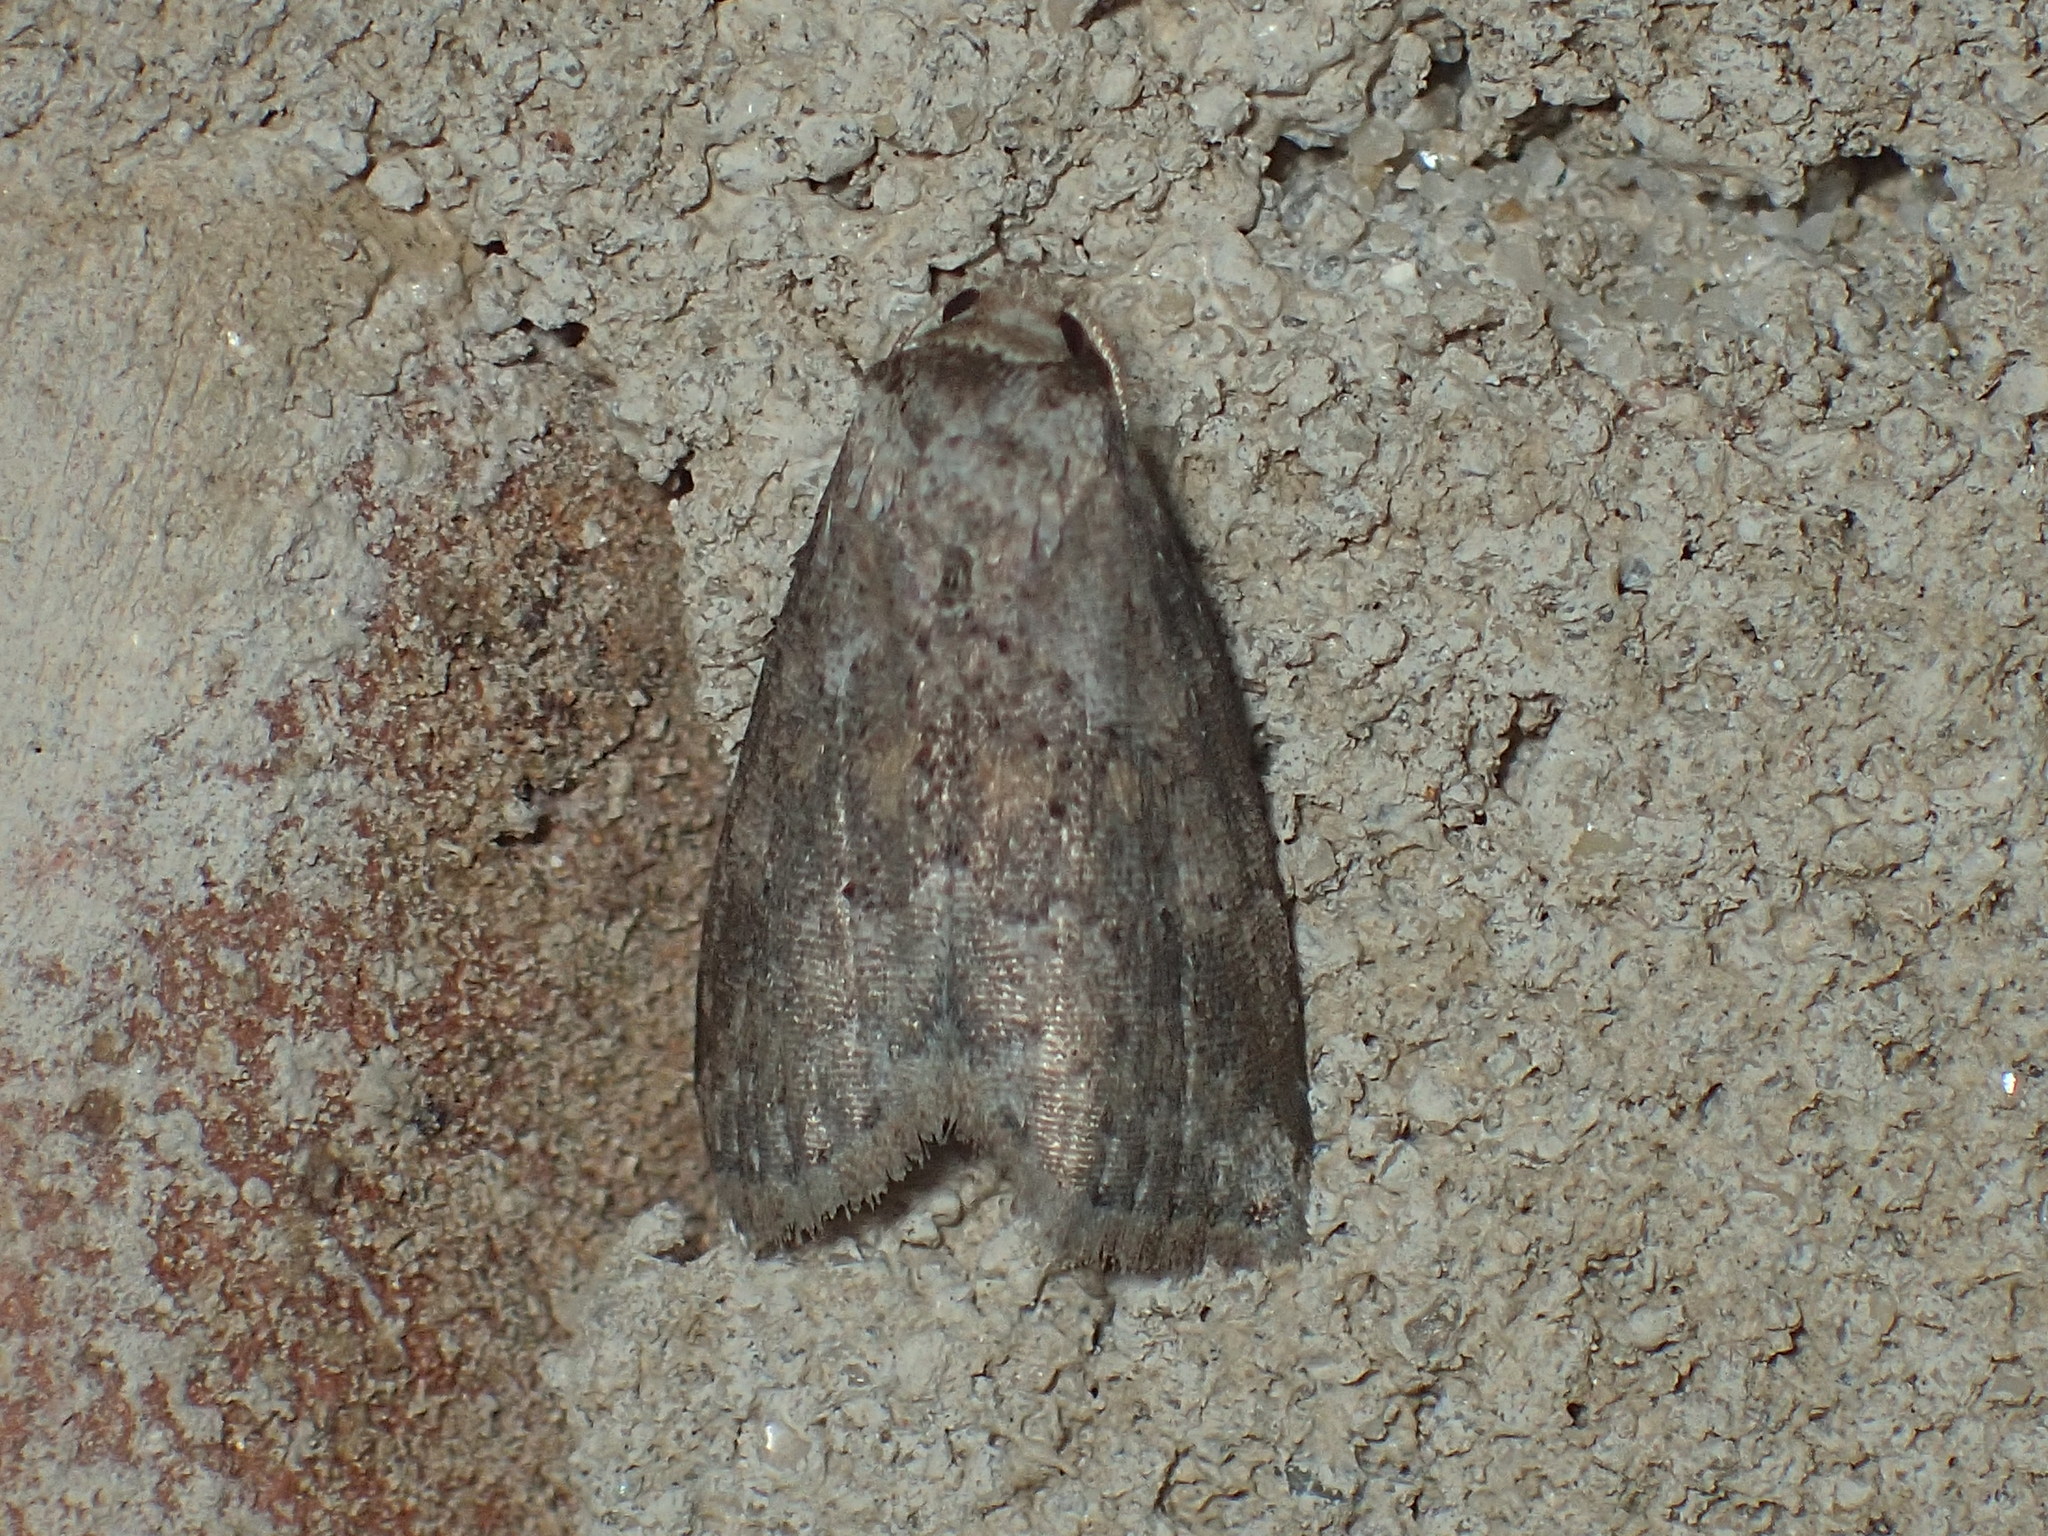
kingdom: Animalia
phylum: Arthropoda
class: Insecta
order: Lepidoptera
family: Erebidae
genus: Hyperstrotia
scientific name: Hyperstrotia nana
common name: White-lined graylet
